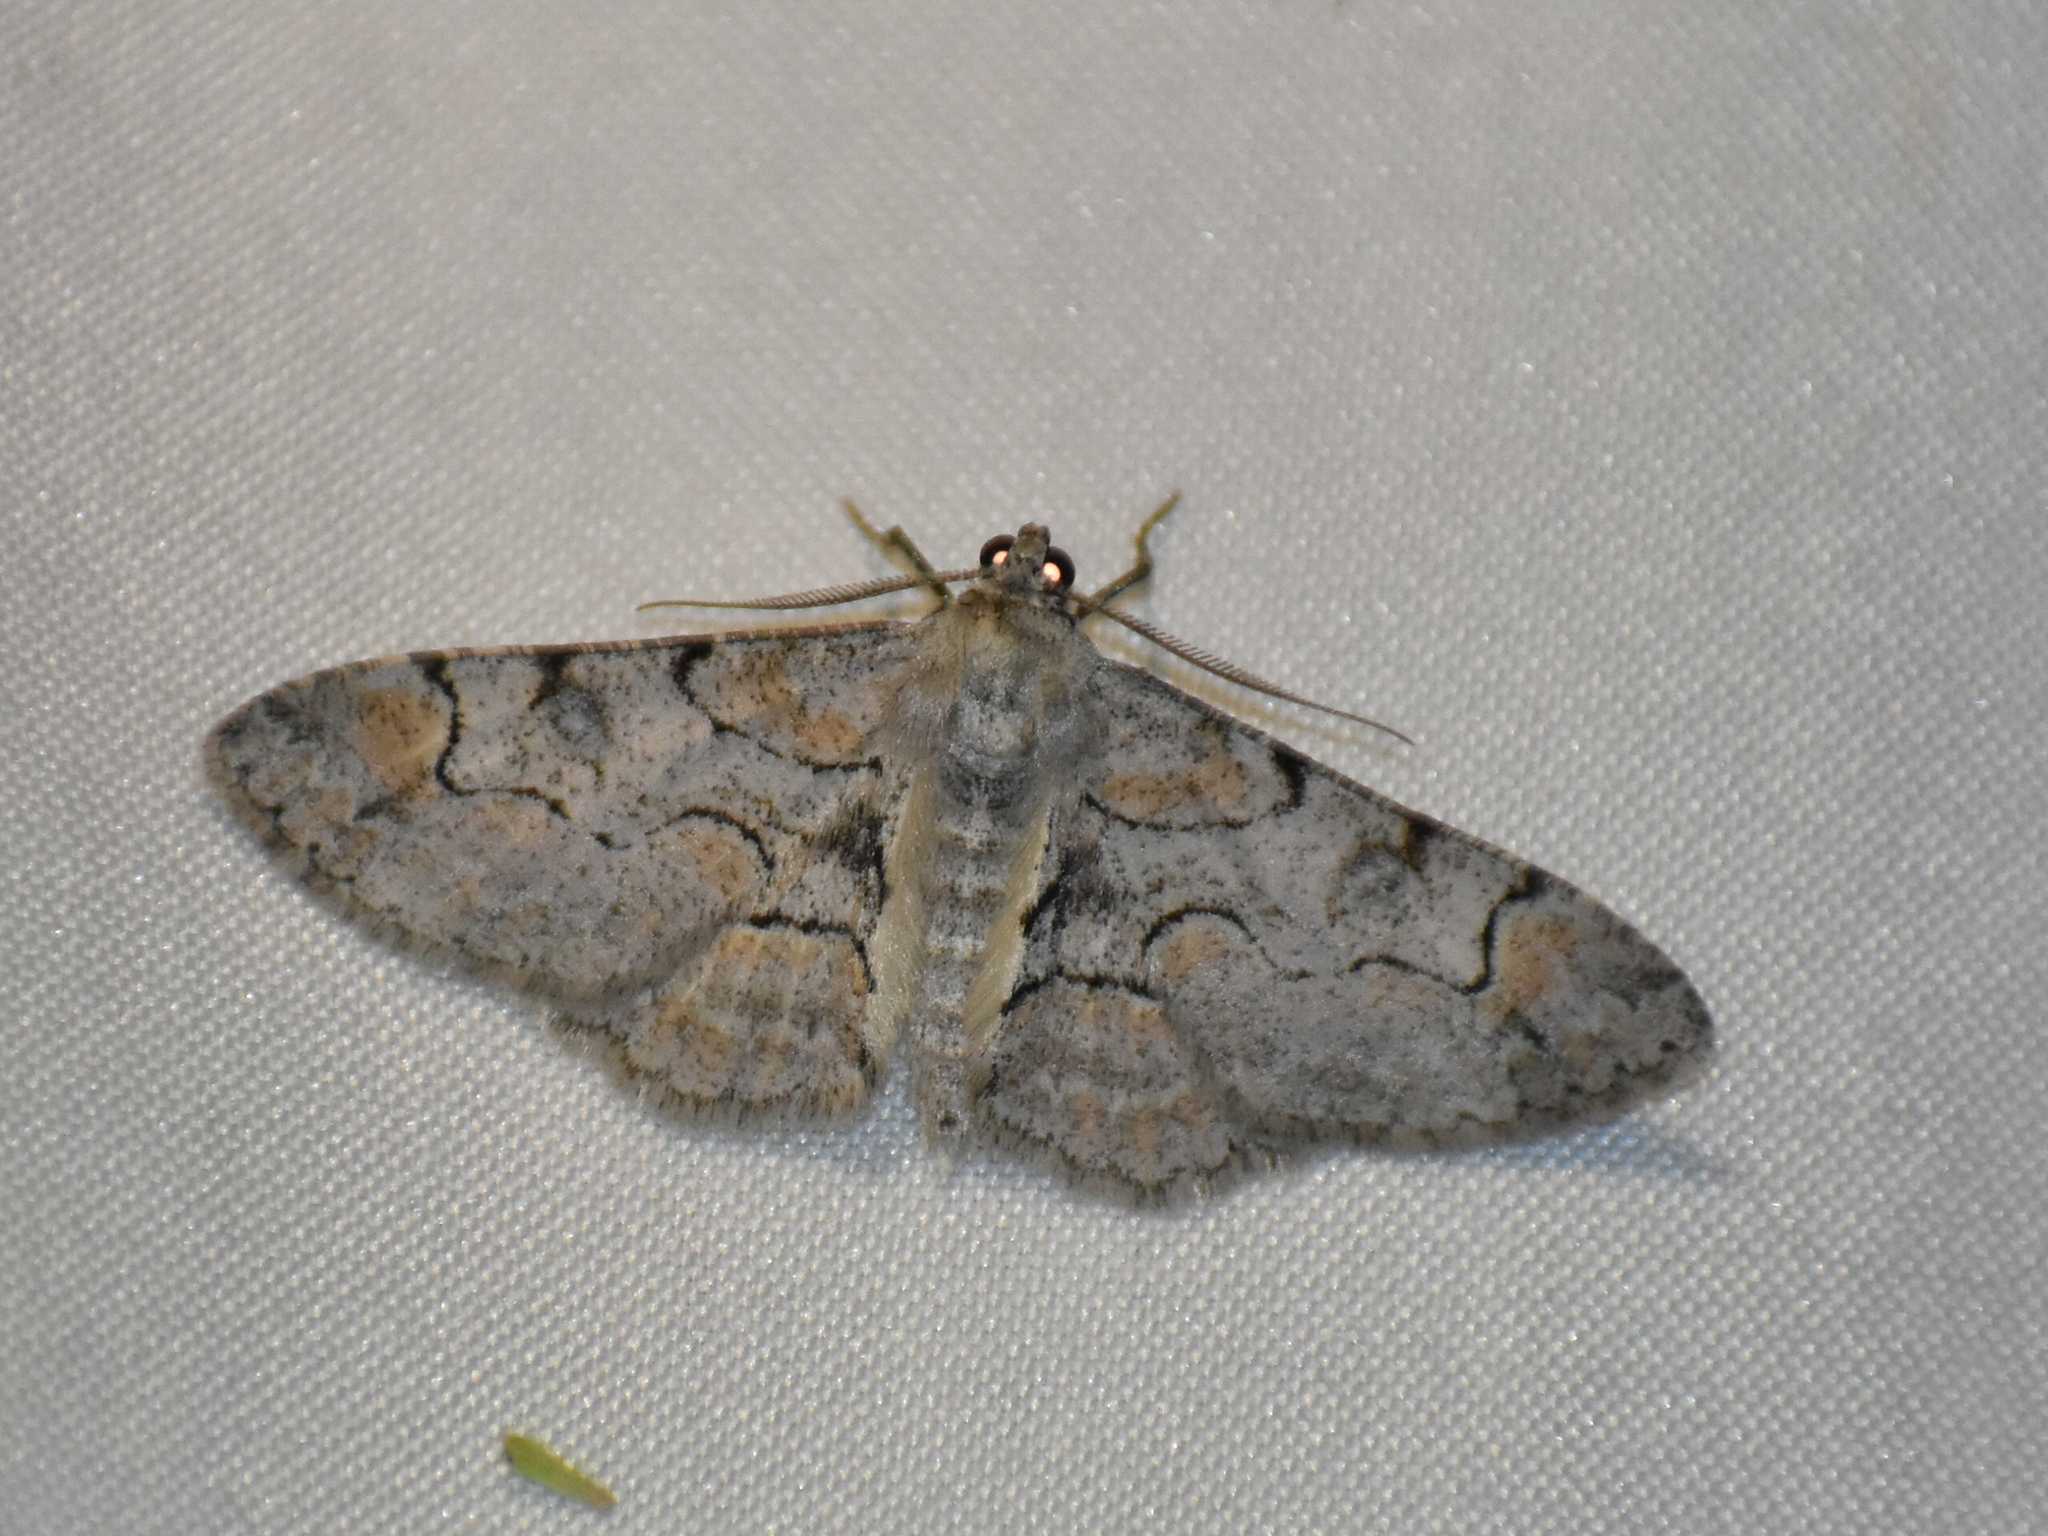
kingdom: Animalia
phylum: Arthropoda
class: Insecta
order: Lepidoptera
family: Geometridae
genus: Iridopsis
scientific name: Iridopsis larvaria
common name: Bent-line gray
